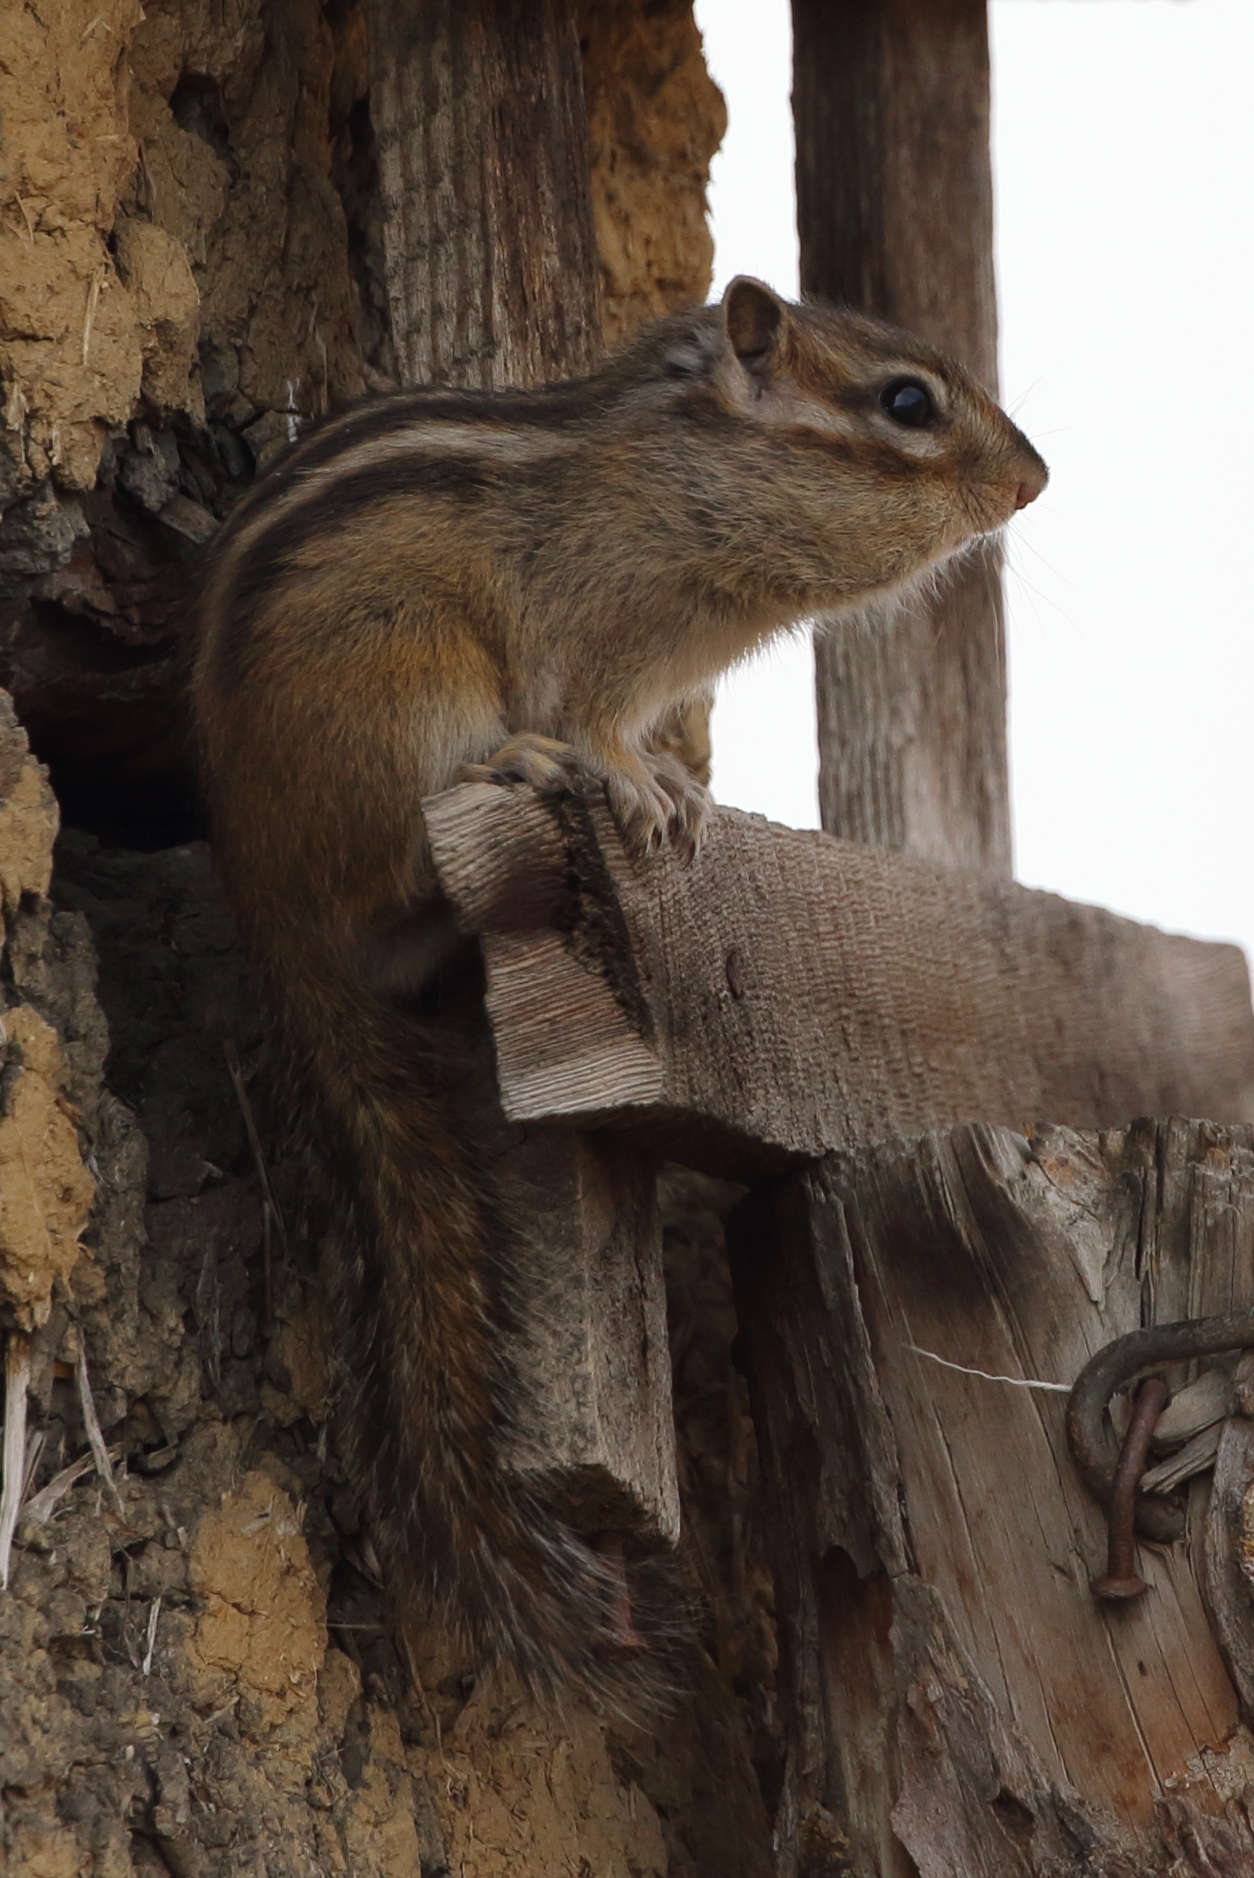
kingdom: Animalia
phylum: Chordata
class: Mammalia
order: Rodentia
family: Sciuridae
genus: Tamias
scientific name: Tamias sibiricus
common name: Siberian chipmunk
